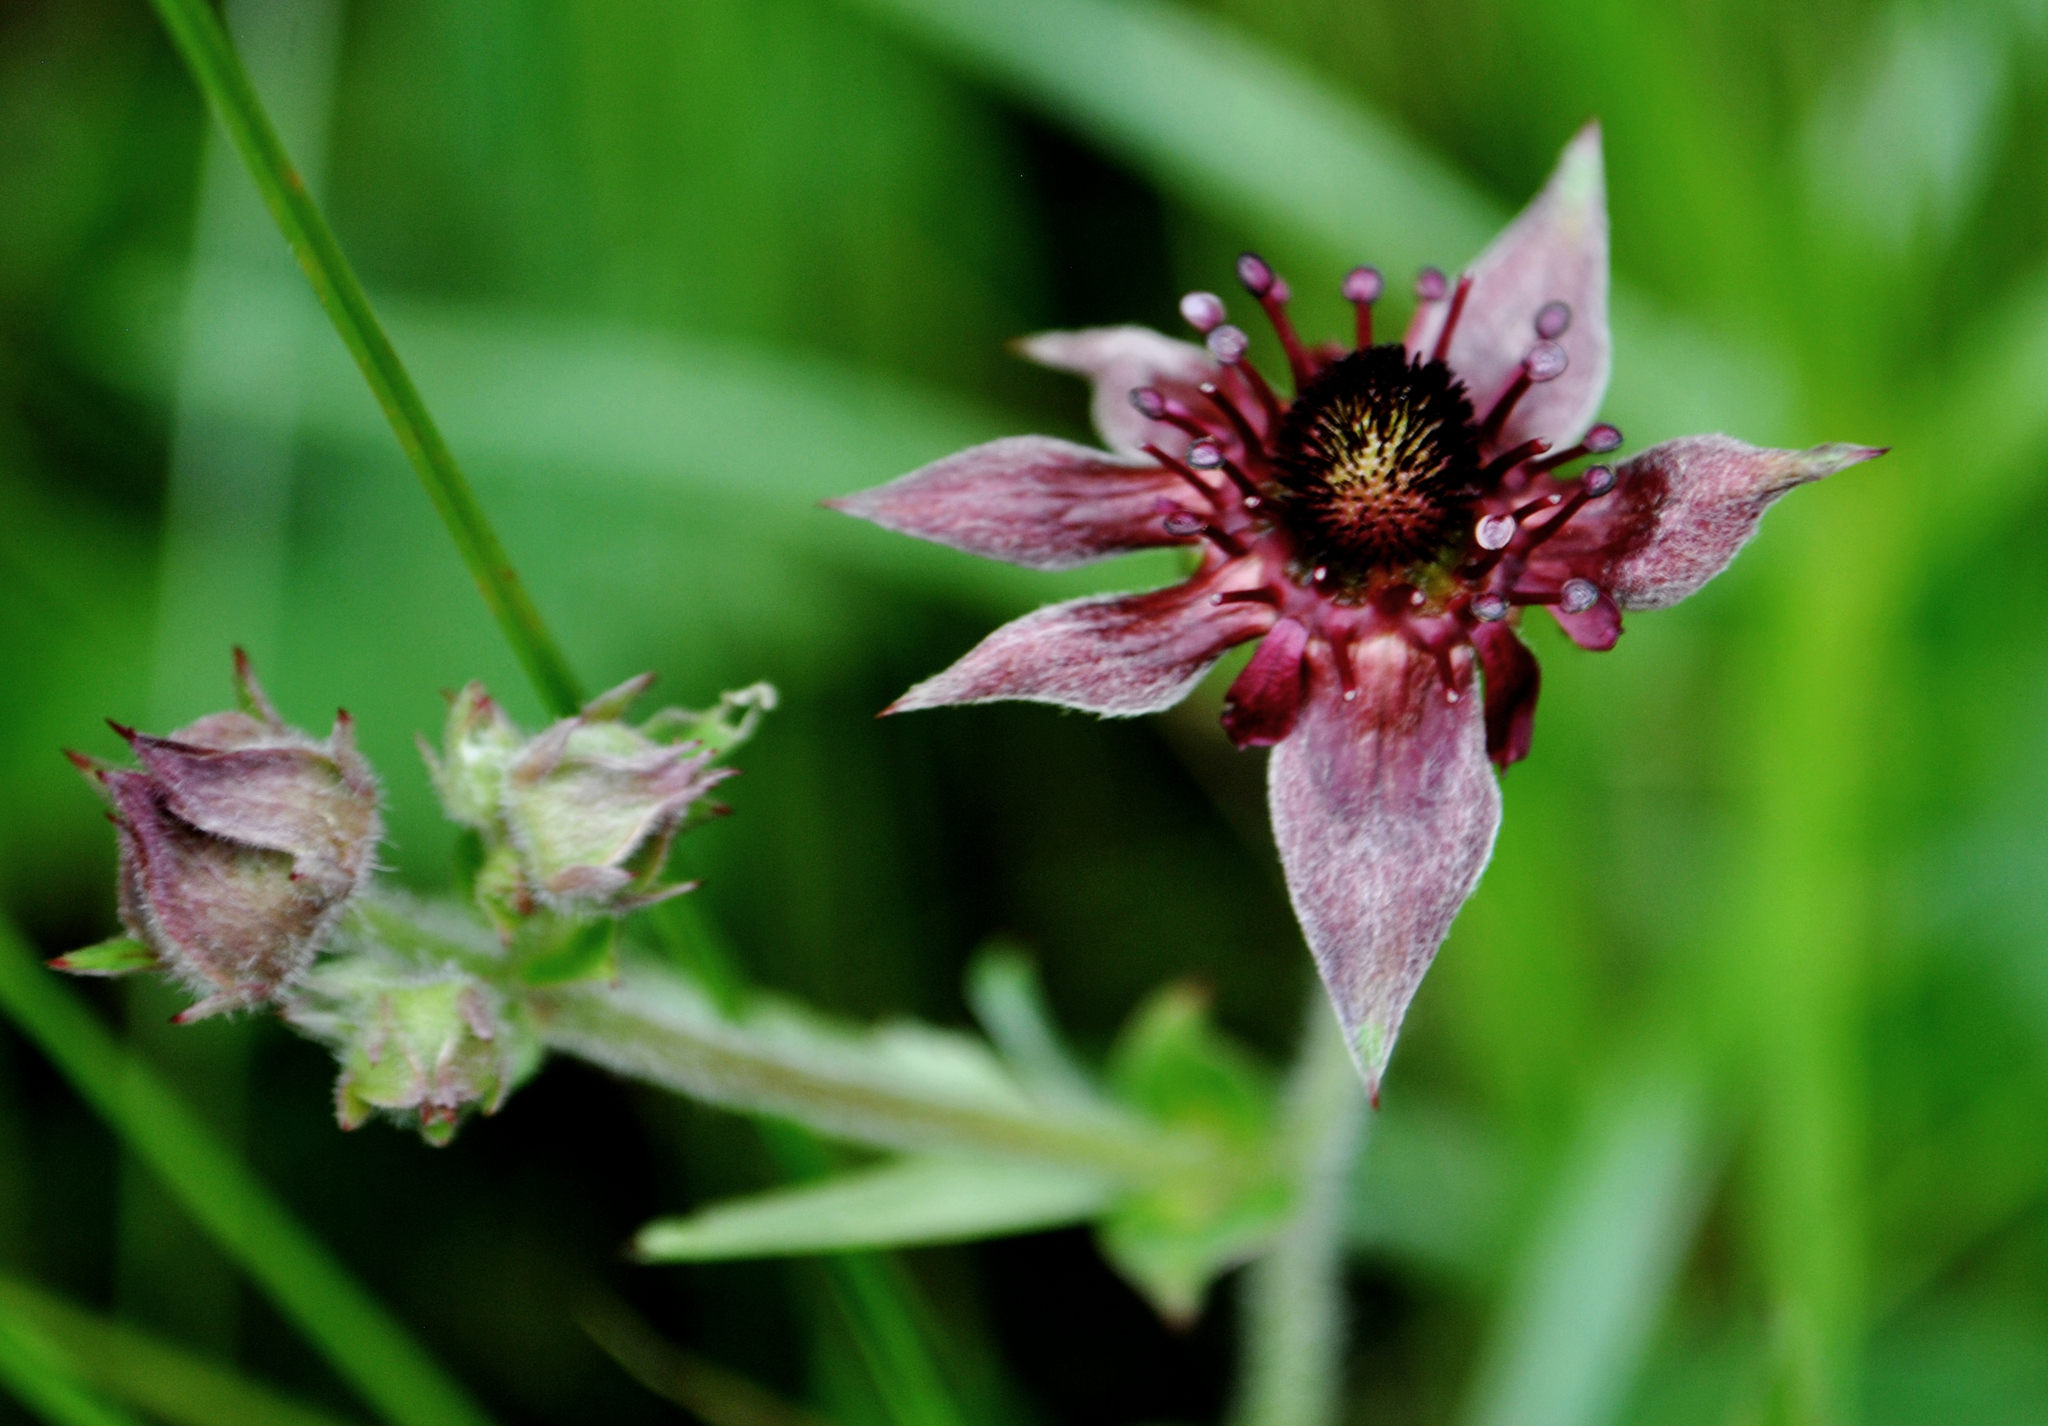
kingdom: Plantae
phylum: Tracheophyta
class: Magnoliopsida
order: Rosales
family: Rosaceae
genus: Comarum
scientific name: Comarum palustre
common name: Marsh cinquefoil
